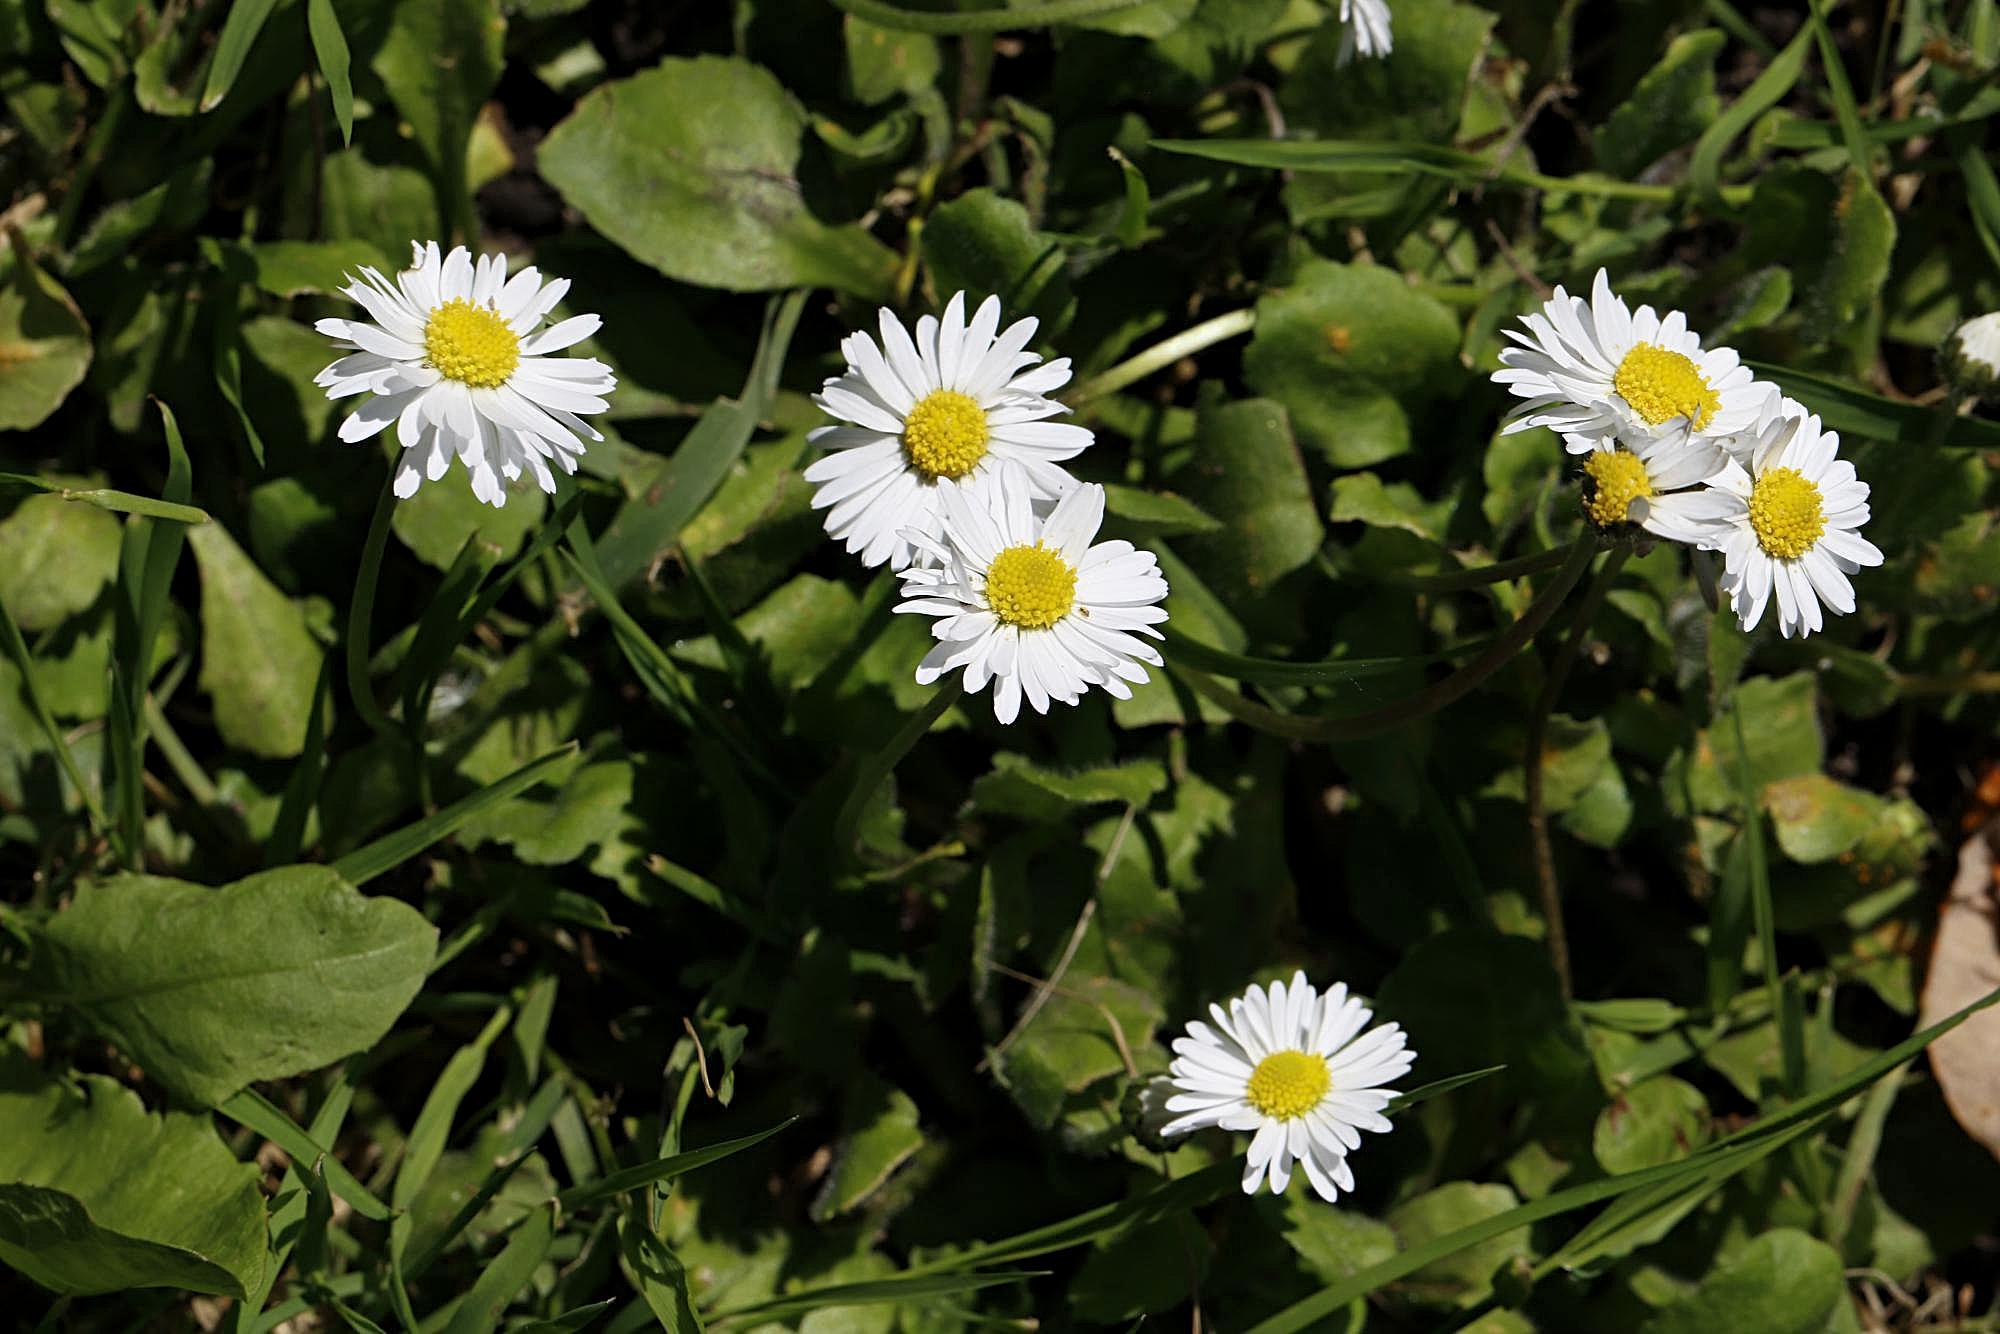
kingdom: Plantae
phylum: Tracheophyta
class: Magnoliopsida
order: Asterales
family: Asteraceae
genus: Bellis
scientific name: Bellis perennis
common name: Lawndaisy
